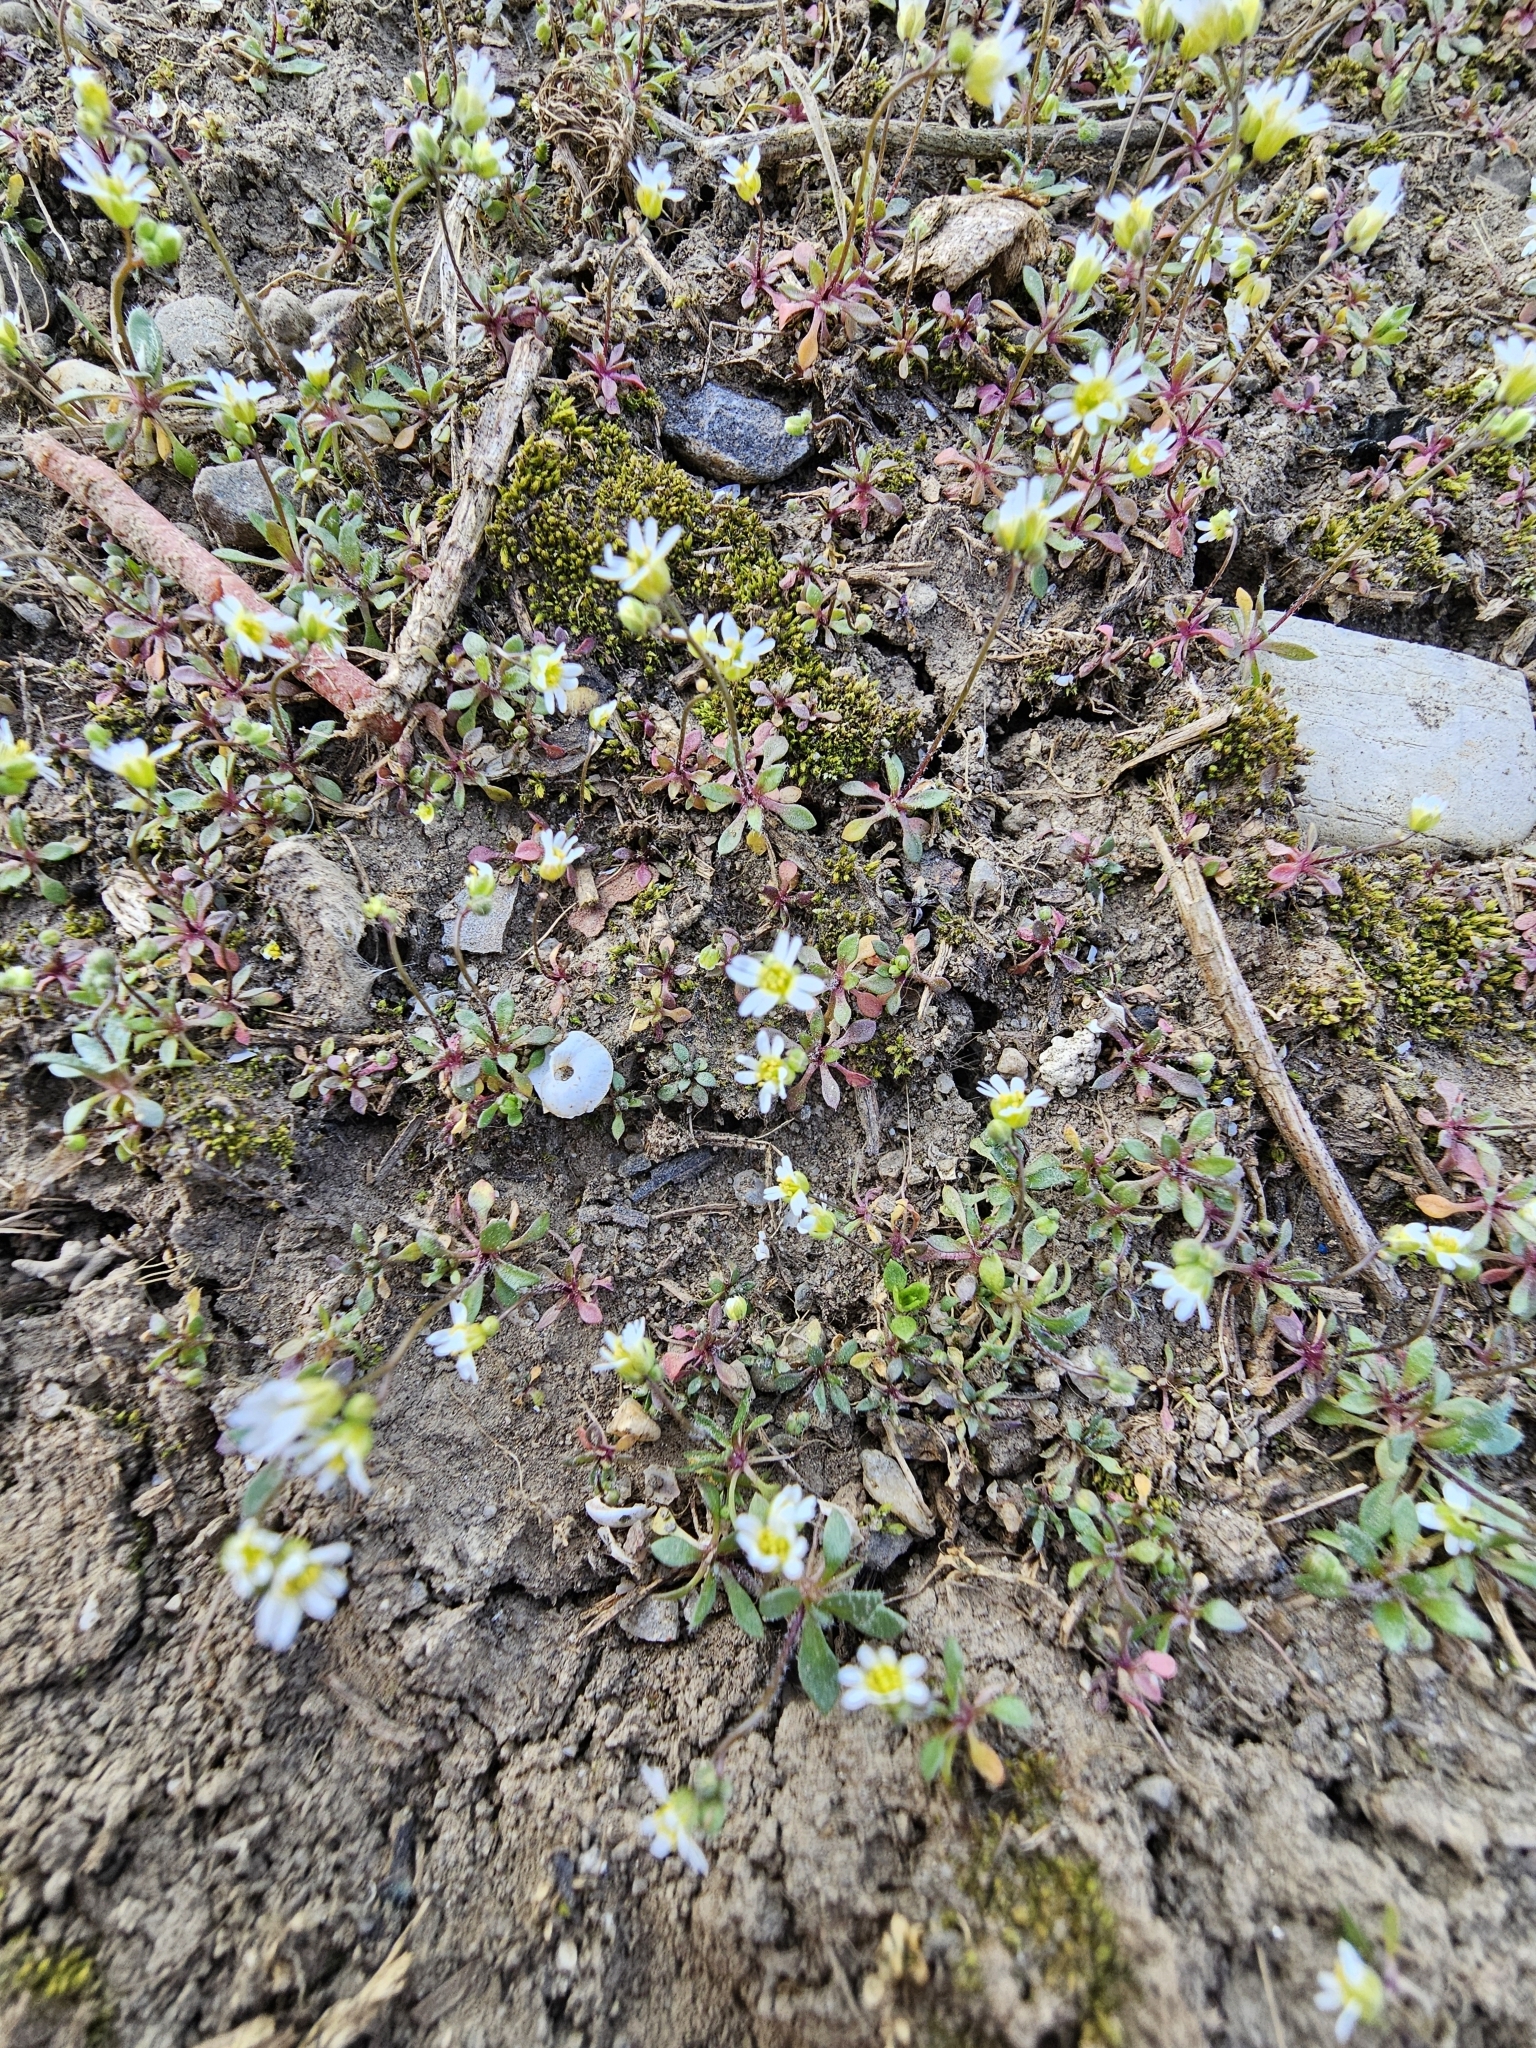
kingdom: Plantae
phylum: Tracheophyta
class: Magnoliopsida
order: Brassicales
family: Brassicaceae
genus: Draba
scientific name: Draba verna
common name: Spring draba
